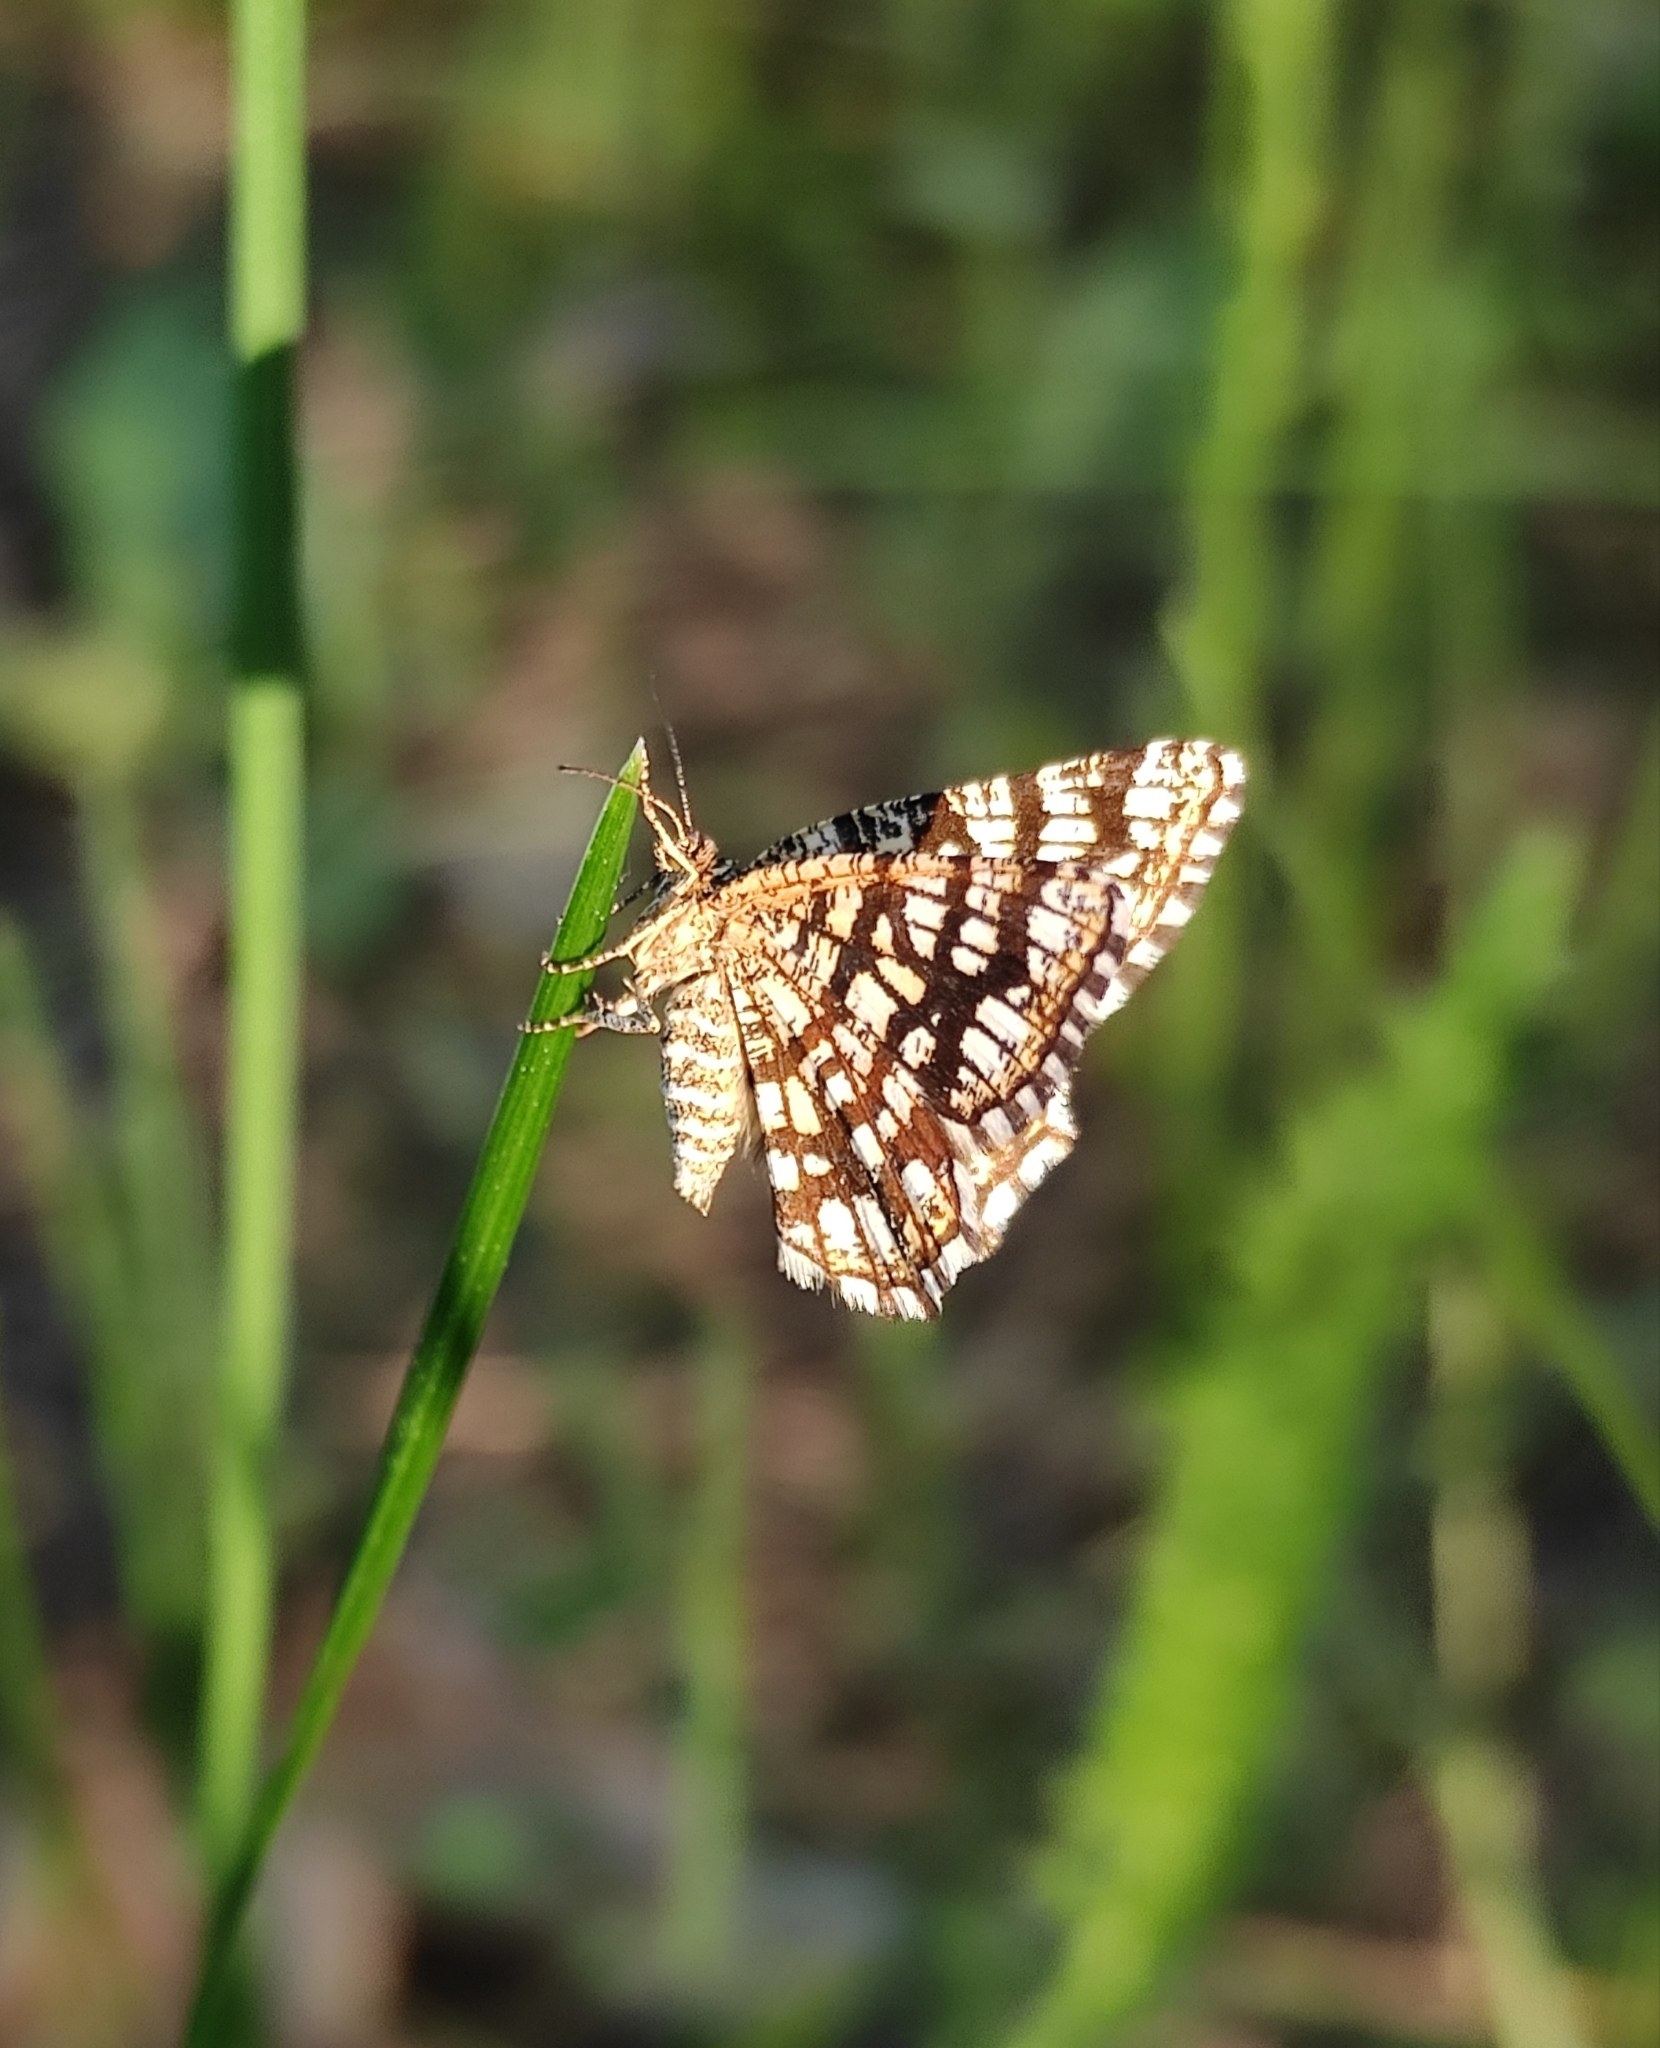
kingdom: Animalia
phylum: Arthropoda
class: Insecta
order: Lepidoptera
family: Geometridae
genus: Chiasmia
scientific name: Chiasmia clathrata
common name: Latticed heath
